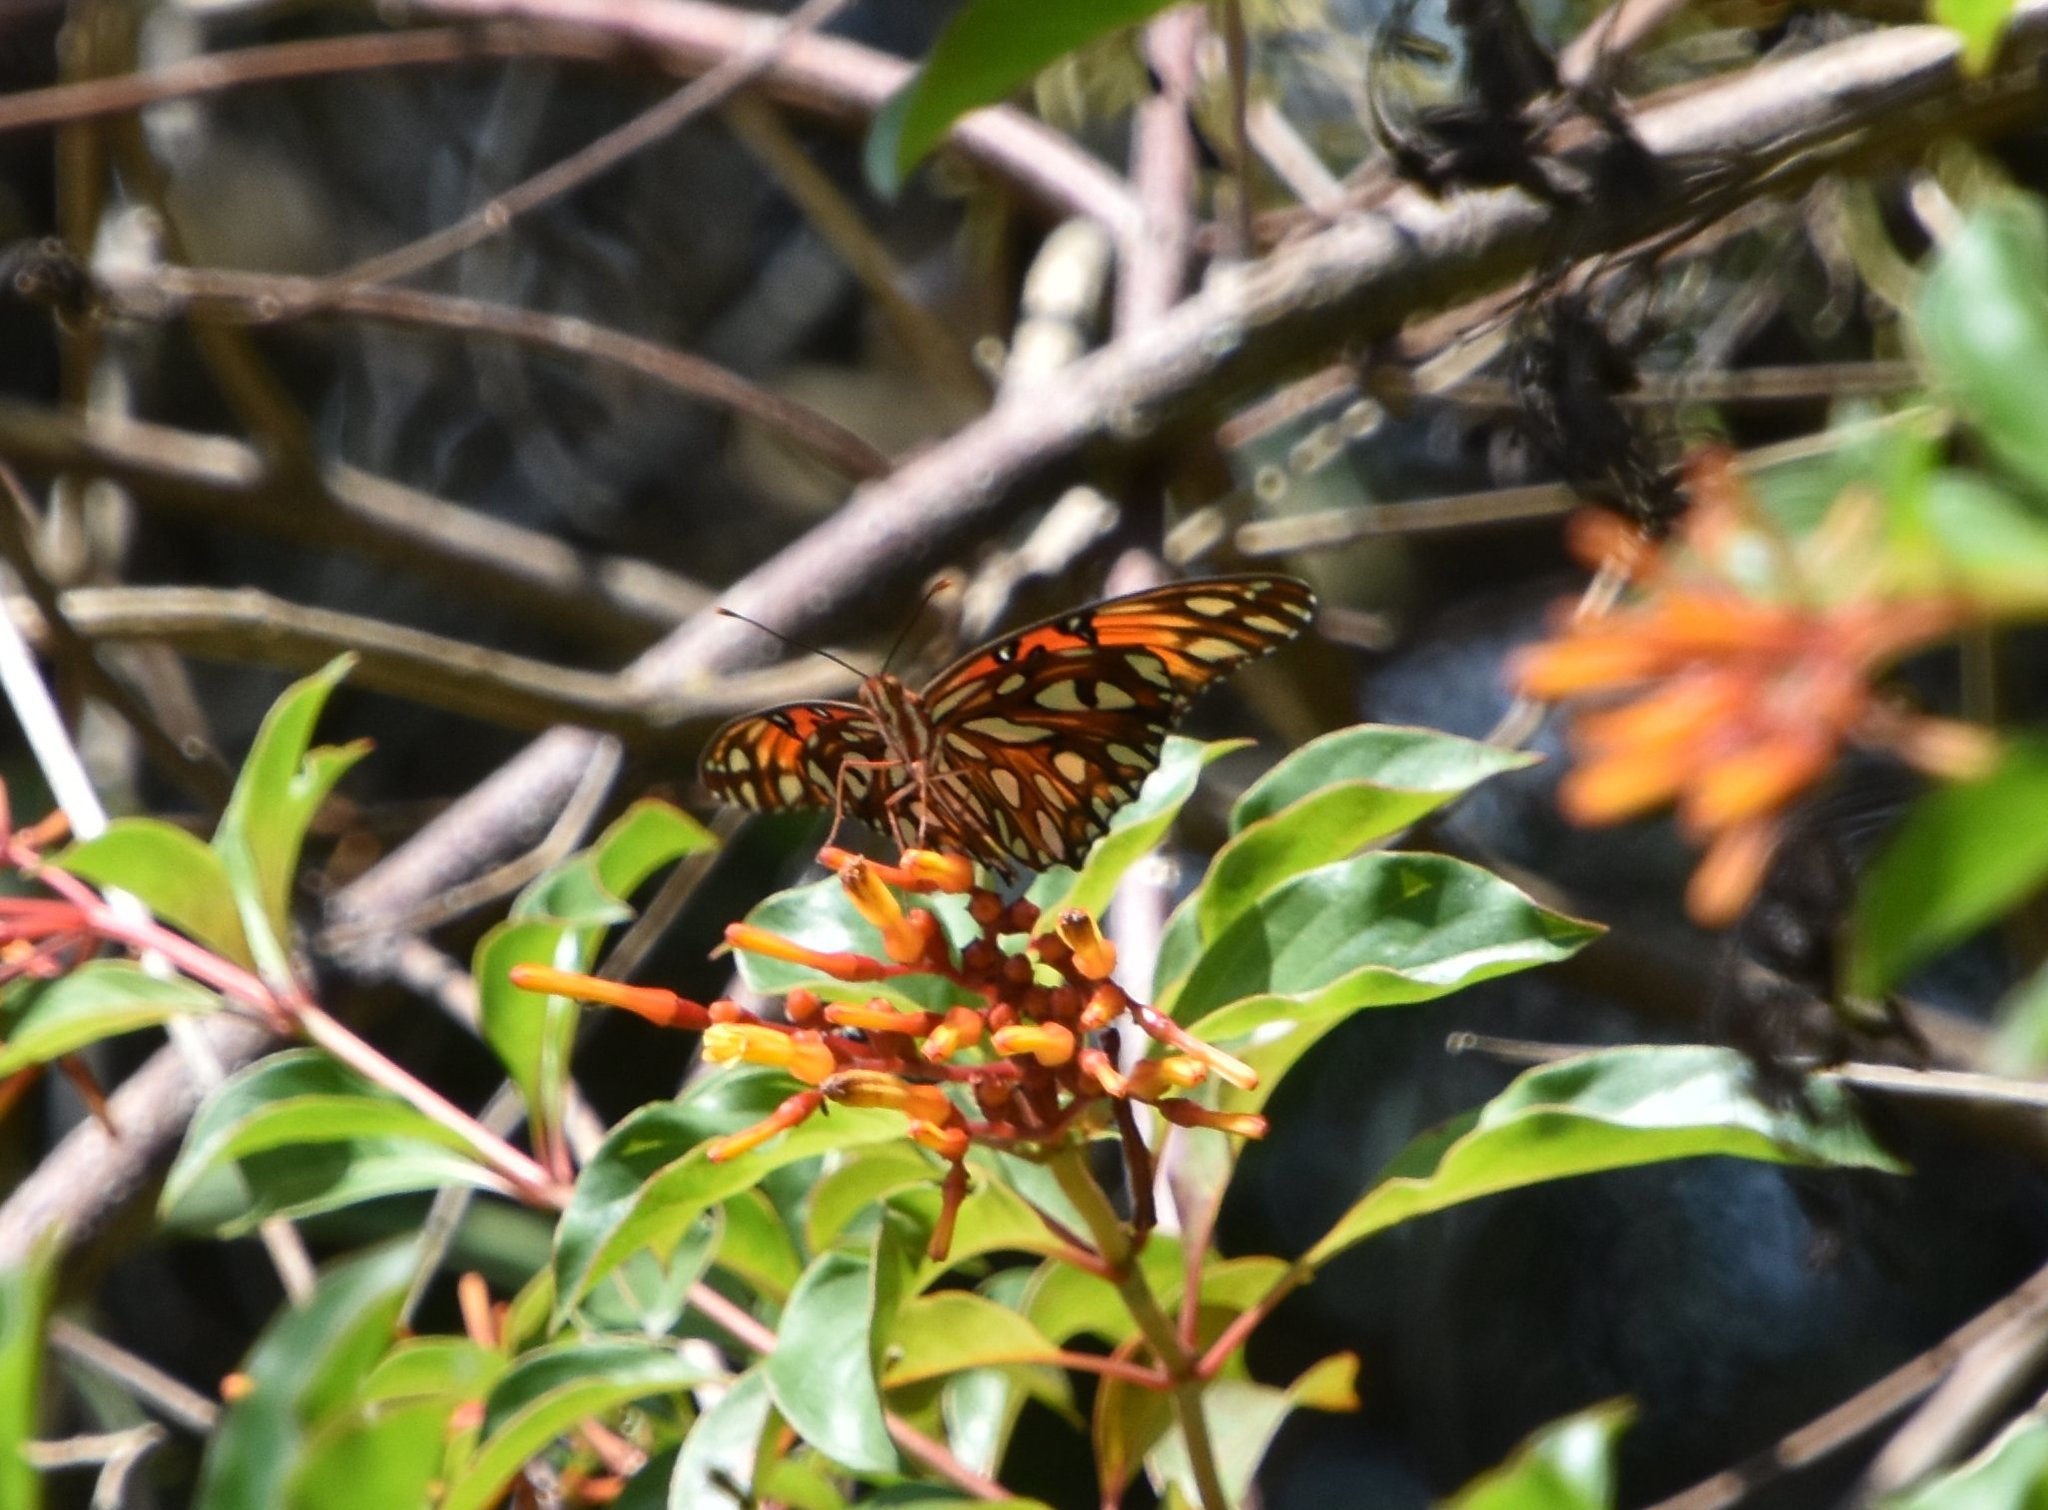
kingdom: Animalia
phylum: Arthropoda
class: Insecta
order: Lepidoptera
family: Nymphalidae
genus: Dione
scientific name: Dione vanillae
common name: Gulf fritillary
